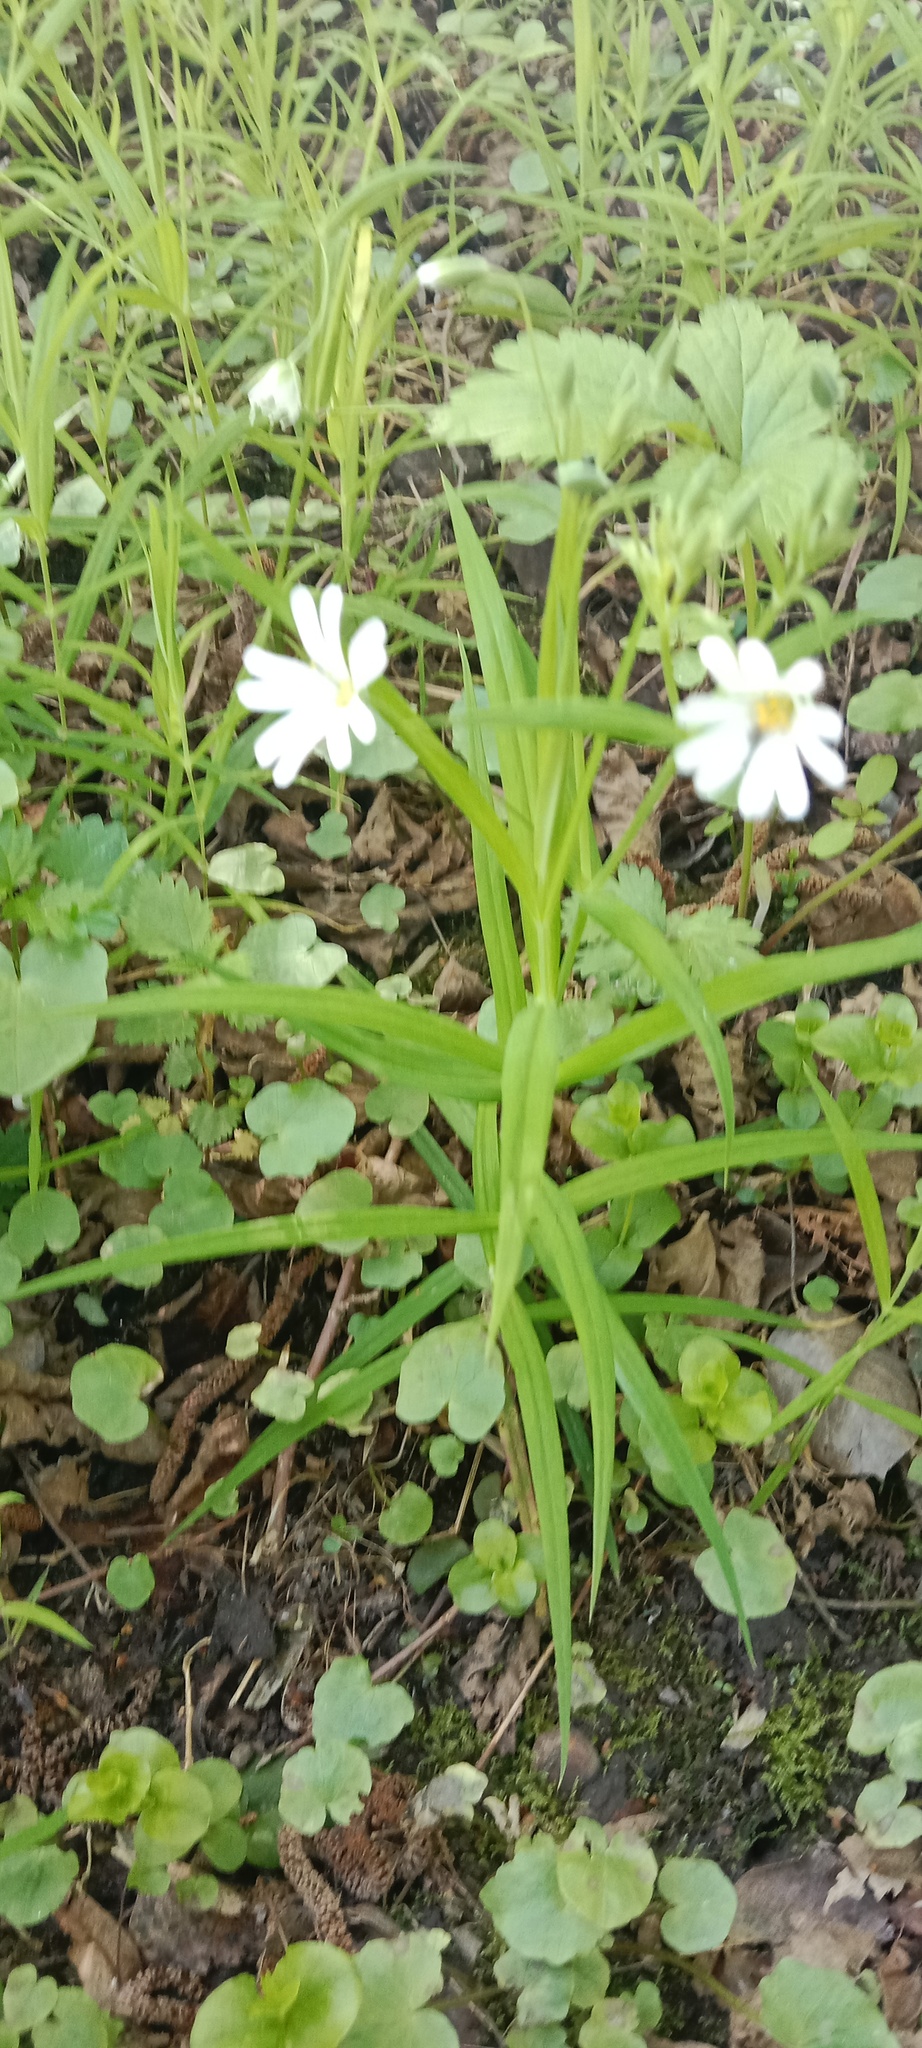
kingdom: Plantae
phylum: Tracheophyta
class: Magnoliopsida
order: Caryophyllales
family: Caryophyllaceae
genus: Rabelera
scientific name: Rabelera holostea
